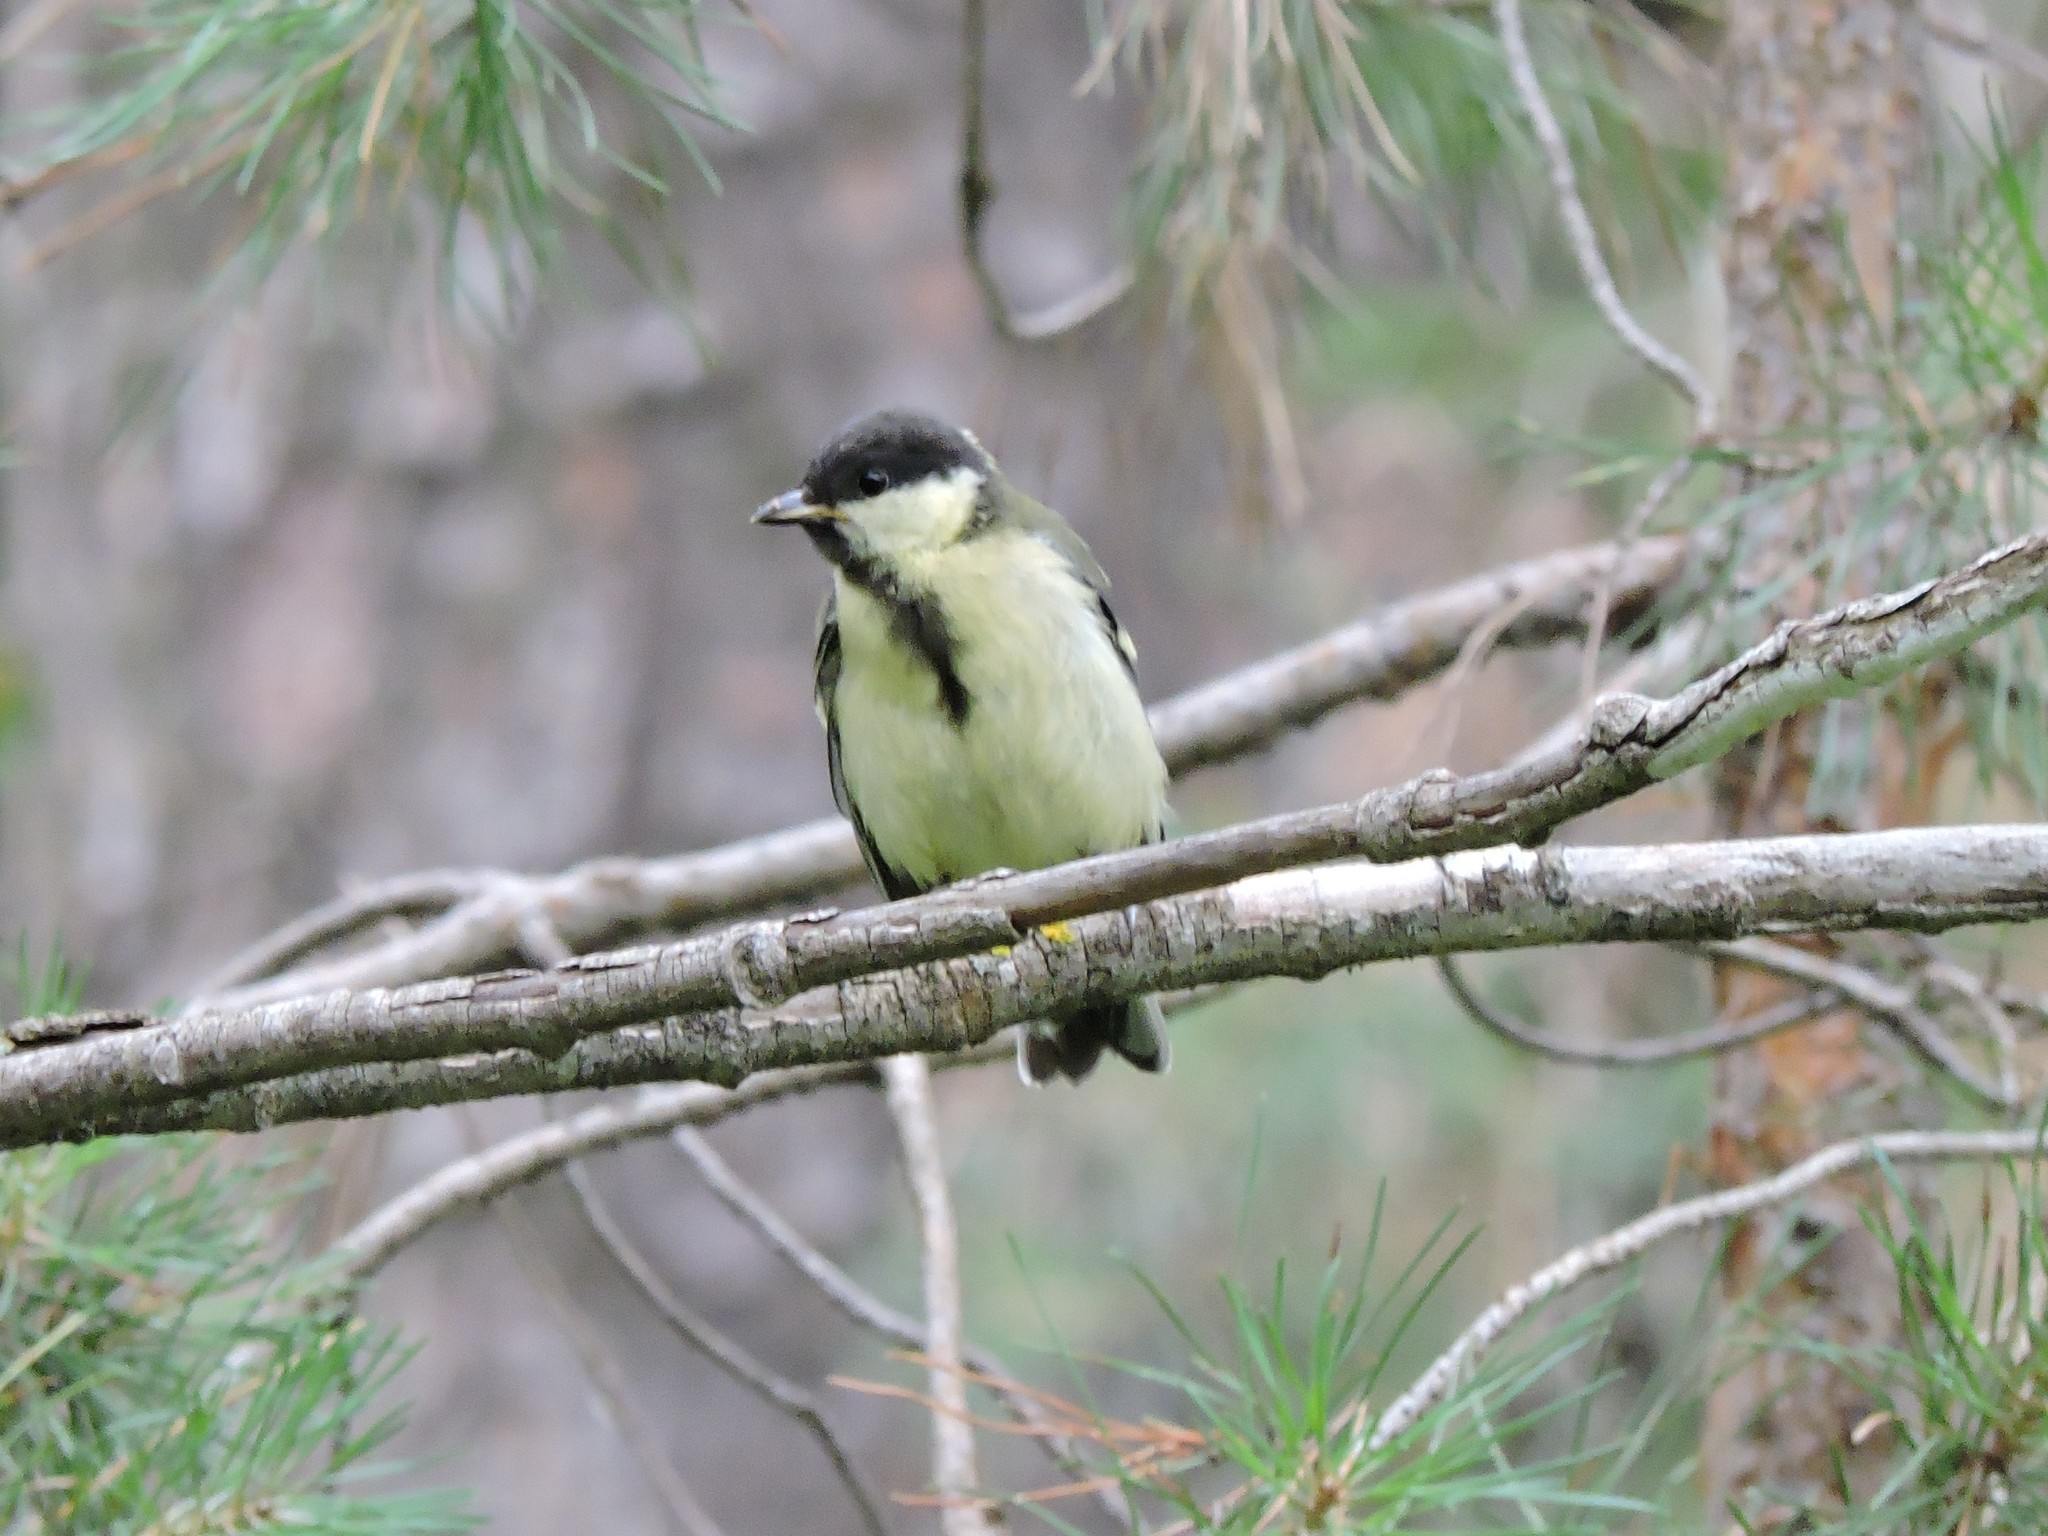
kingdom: Animalia
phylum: Chordata
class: Aves
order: Passeriformes
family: Paridae
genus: Parus
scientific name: Parus major
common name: Great tit
